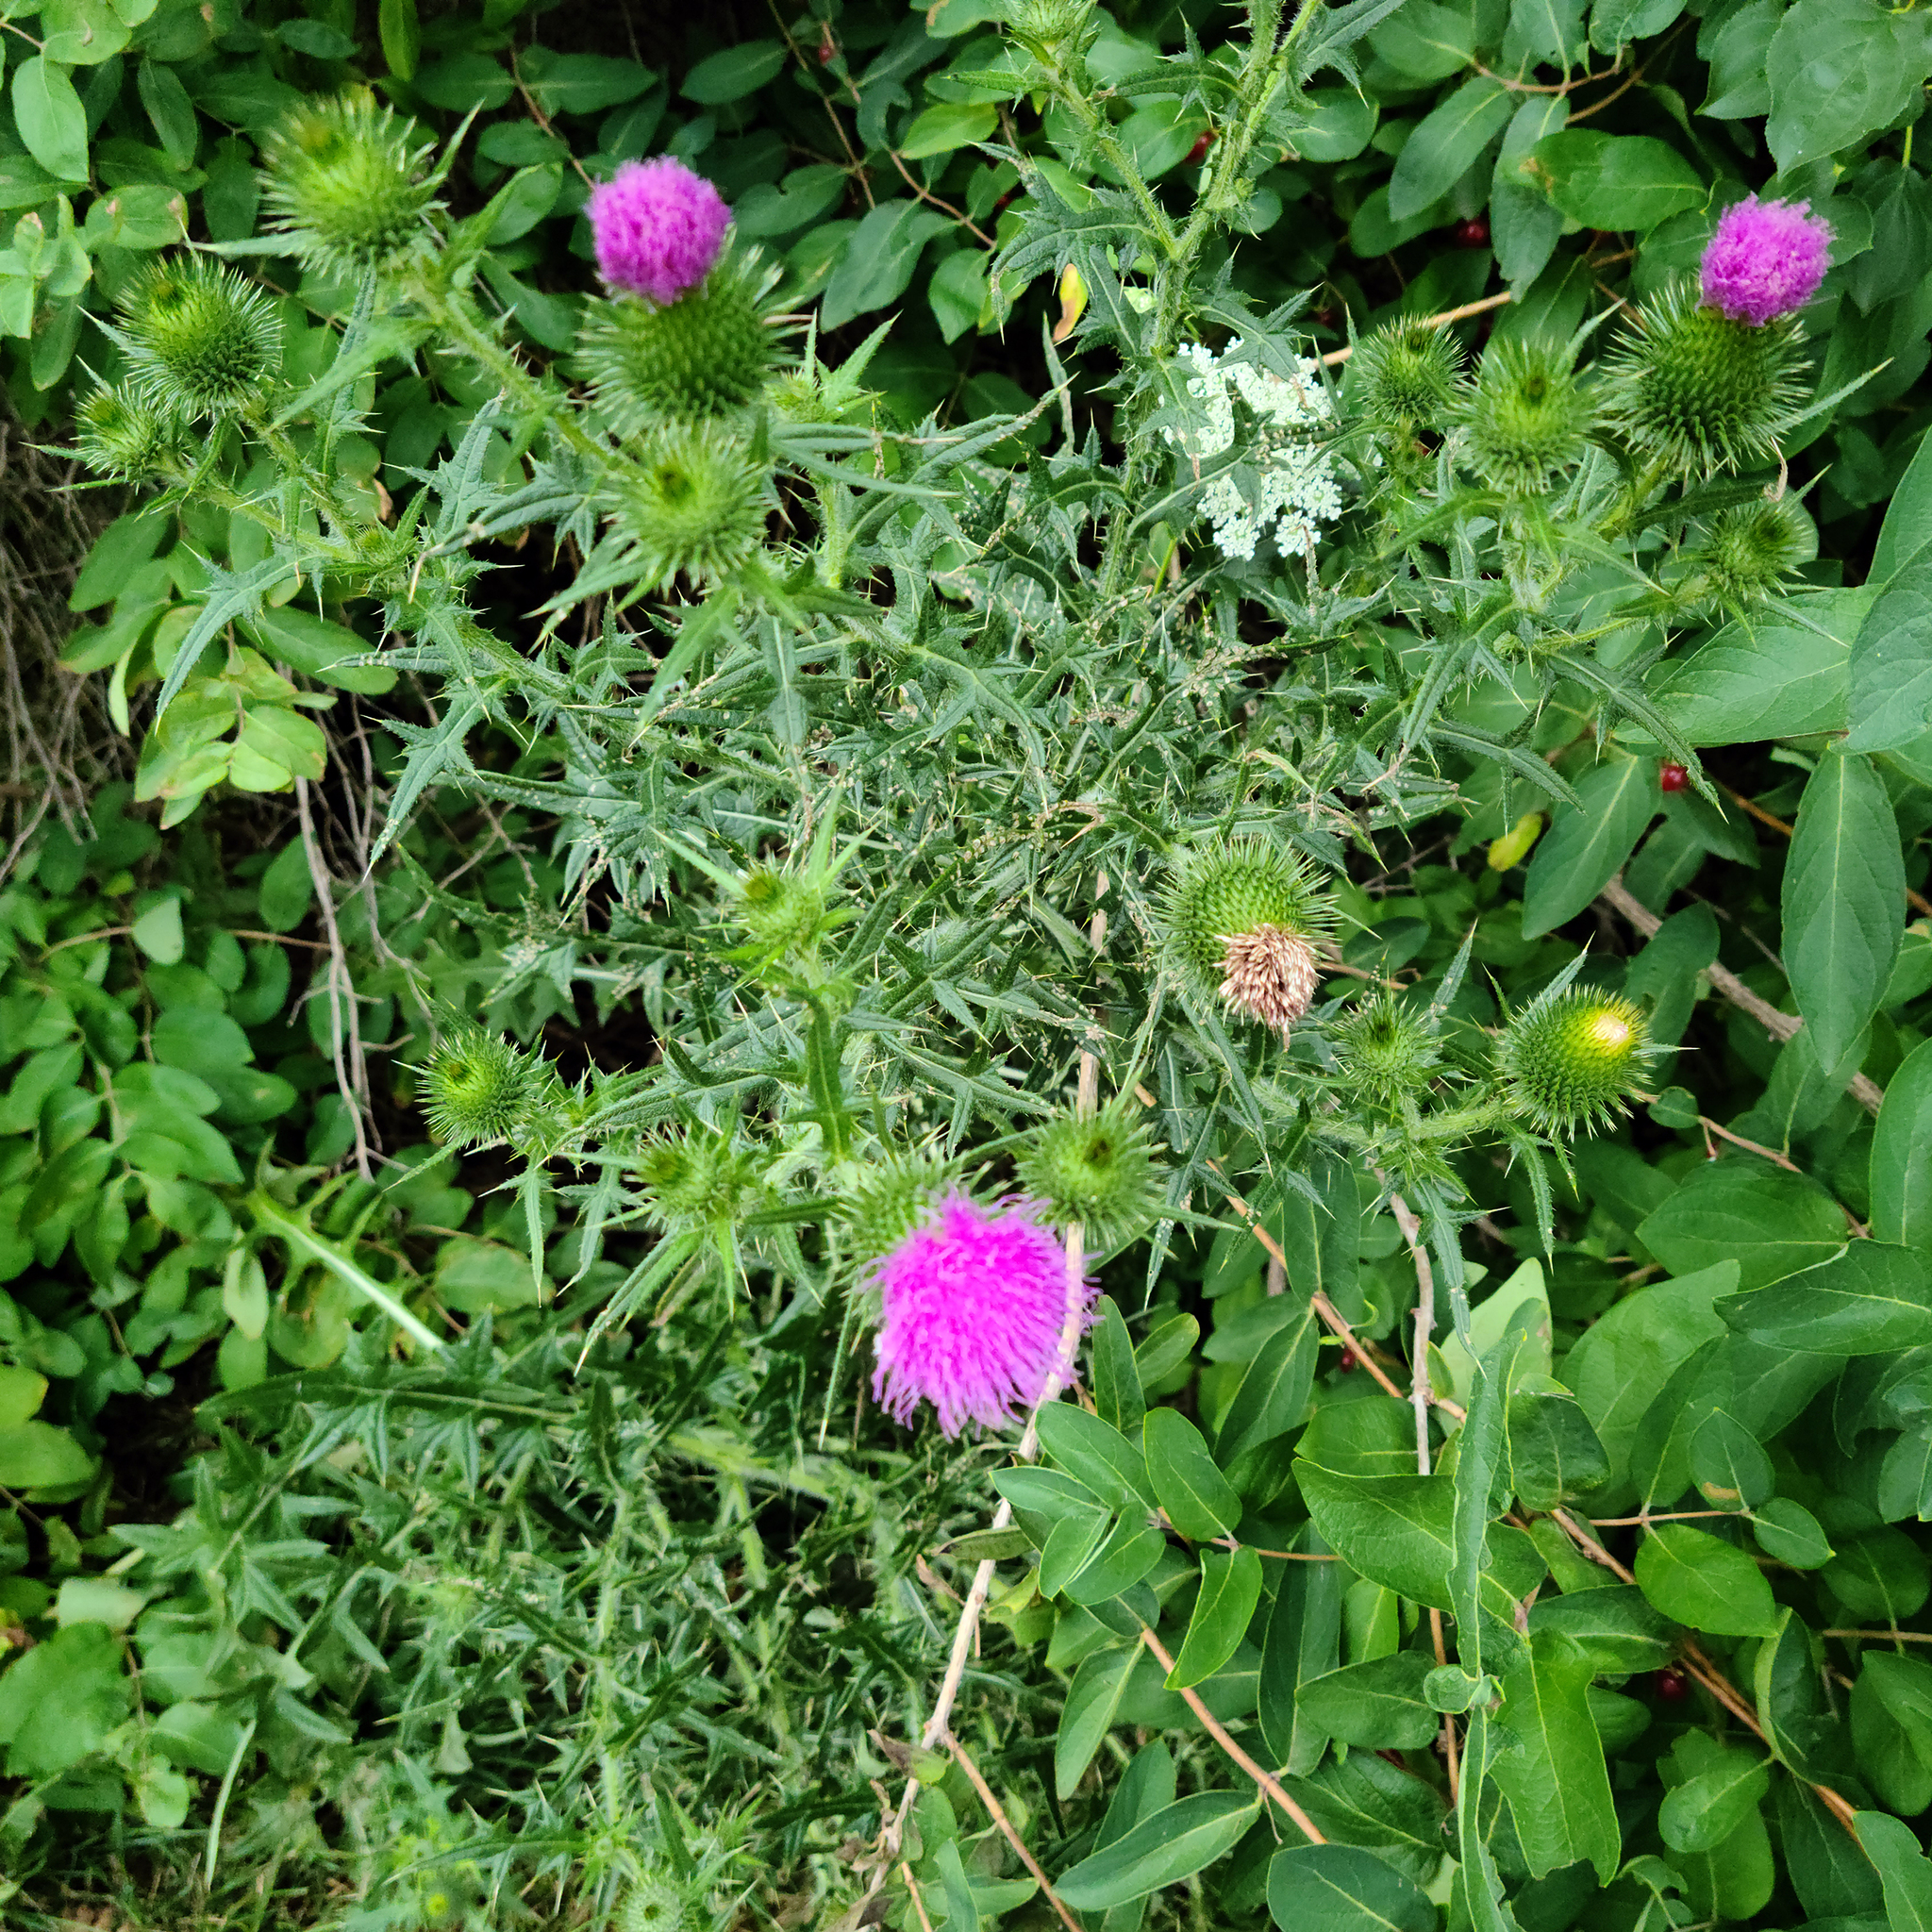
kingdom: Plantae
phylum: Tracheophyta
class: Magnoliopsida
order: Asterales
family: Asteraceae
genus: Cirsium
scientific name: Cirsium vulgare
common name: Bull thistle
